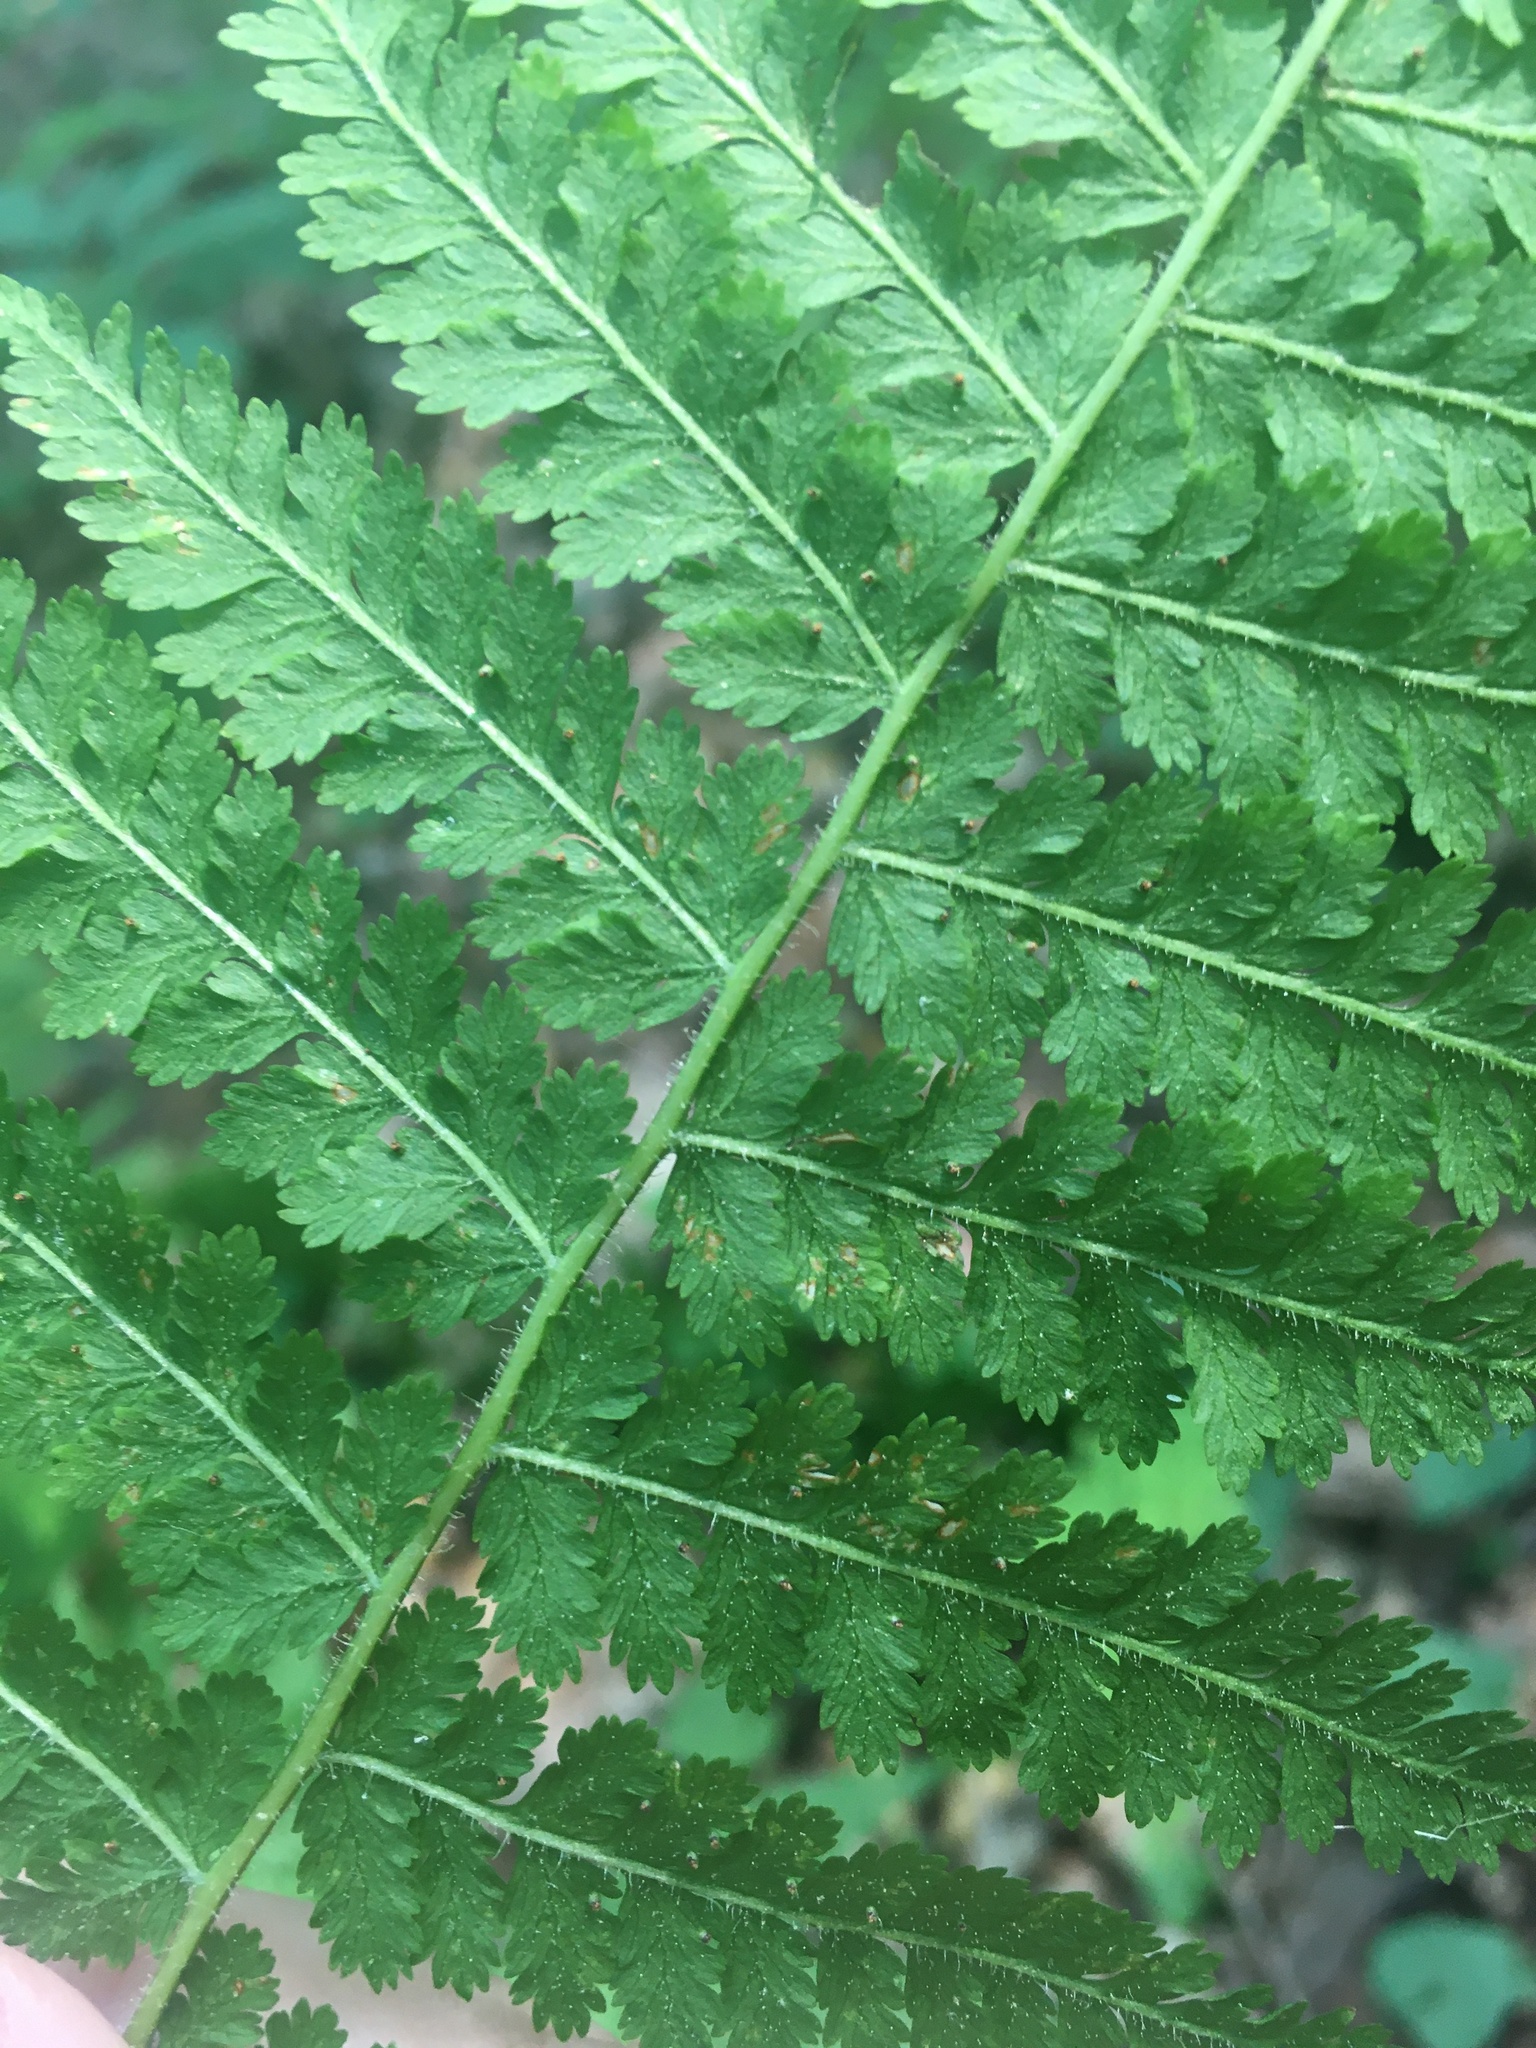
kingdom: Plantae
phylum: Tracheophyta
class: Polypodiopsida
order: Polypodiales
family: Dennstaedtiaceae
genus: Sitobolium
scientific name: Sitobolium punctilobum
